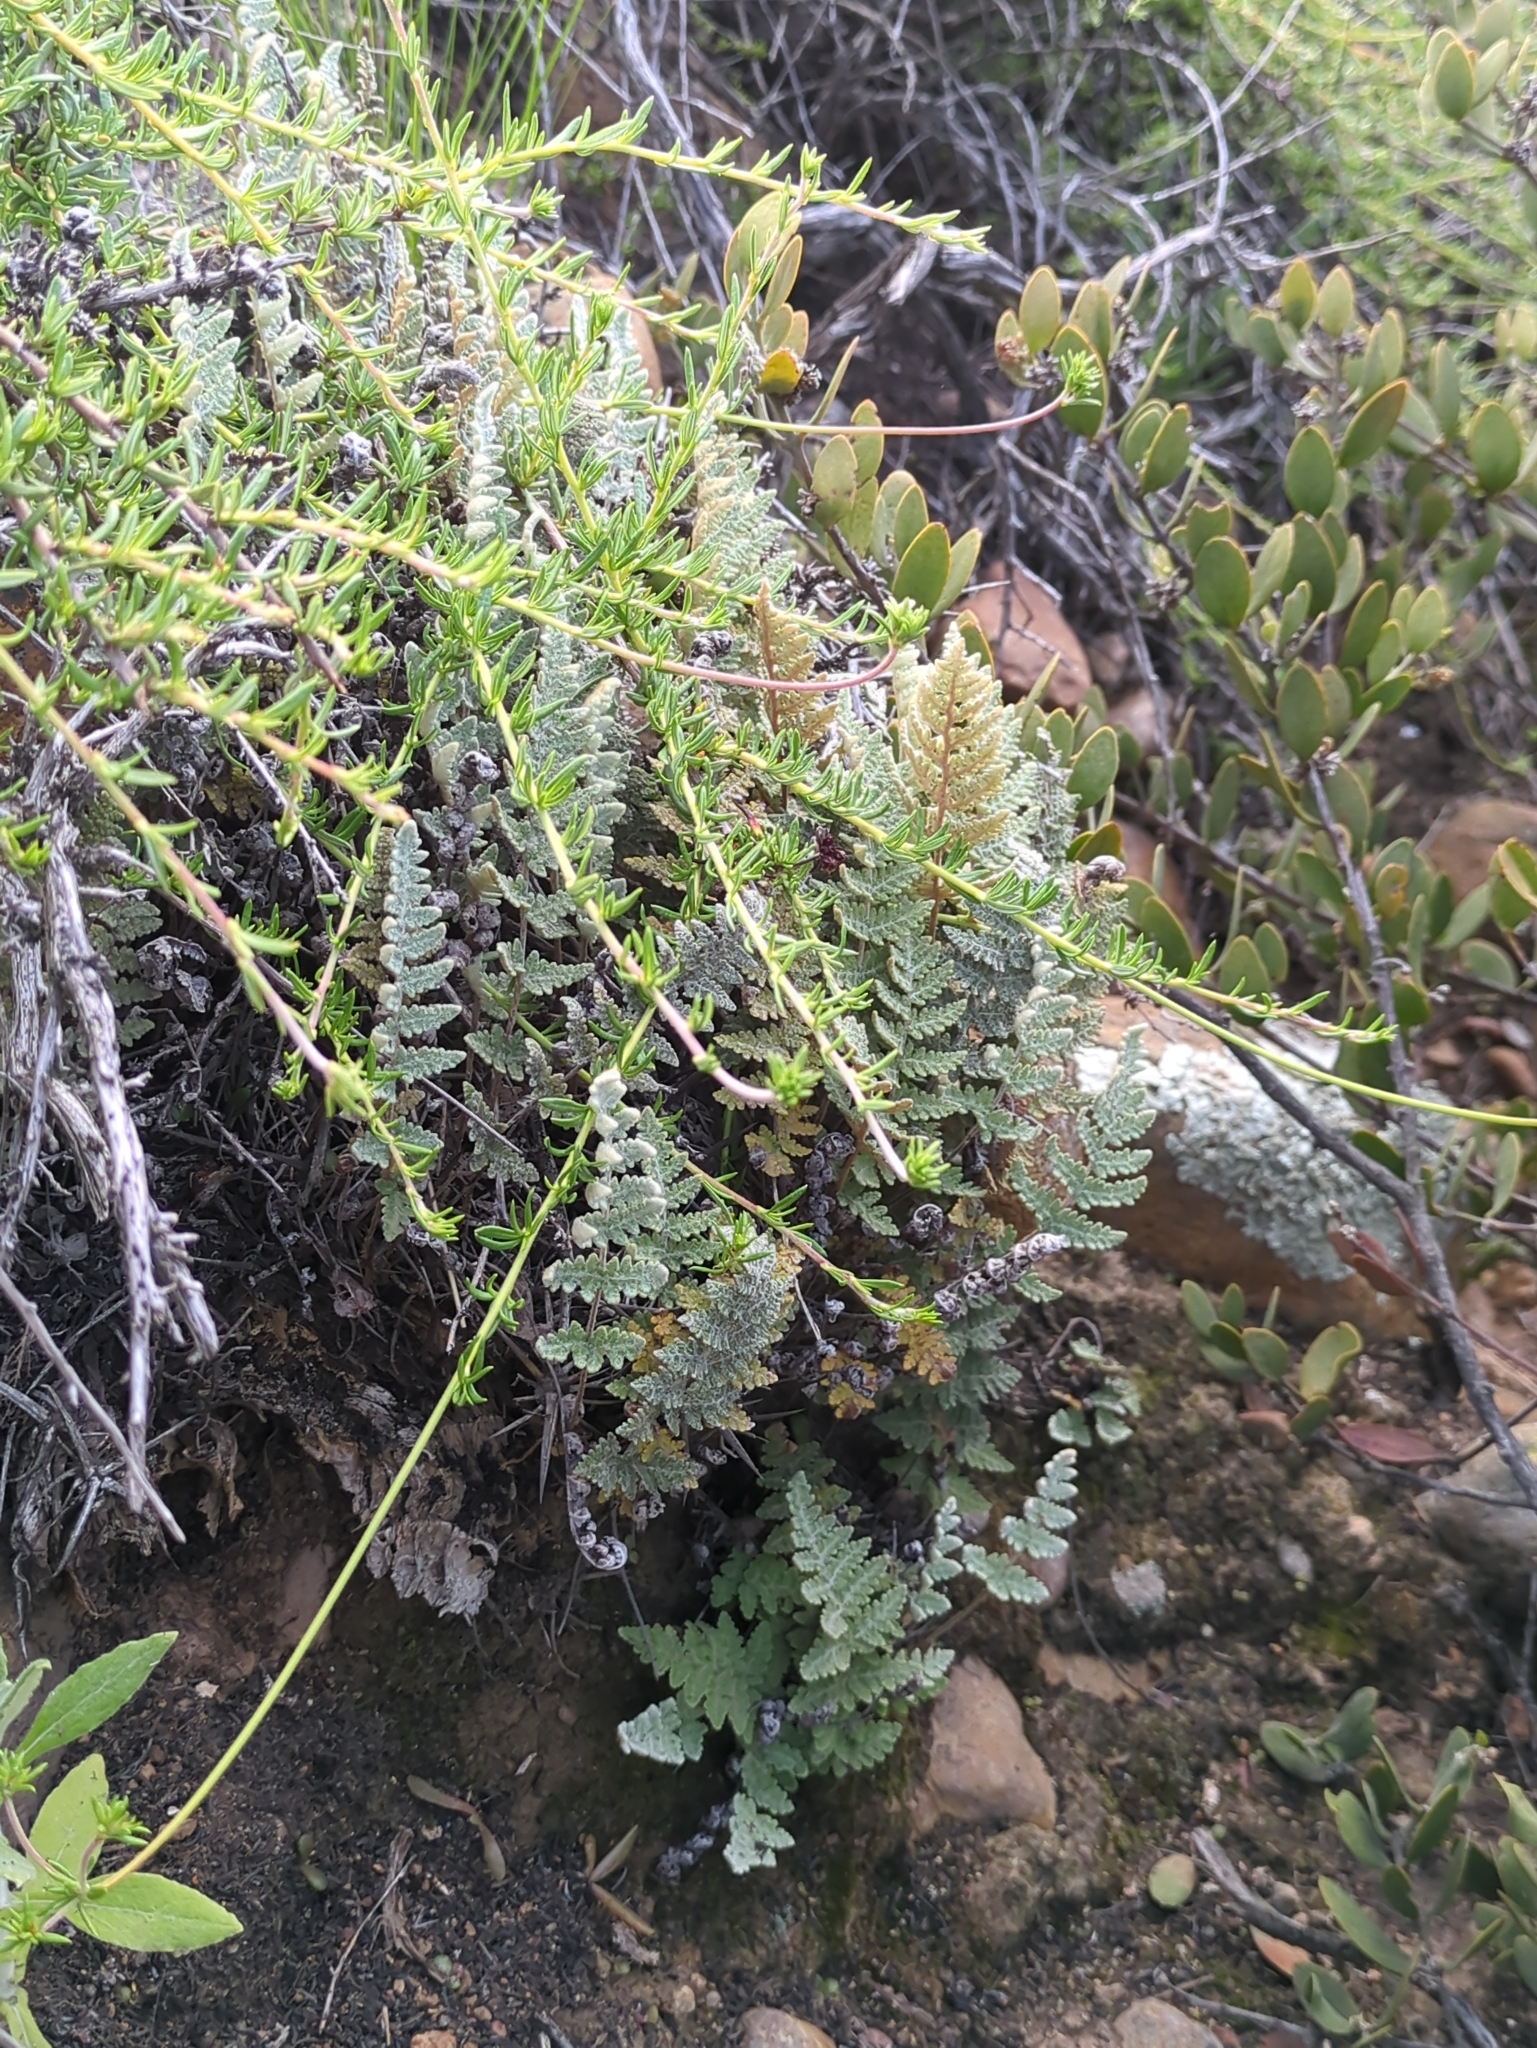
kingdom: Plantae
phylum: Tracheophyta
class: Polypodiopsida
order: Polypodiales
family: Pteridaceae
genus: Myriopteris
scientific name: Myriopteris newberryi
